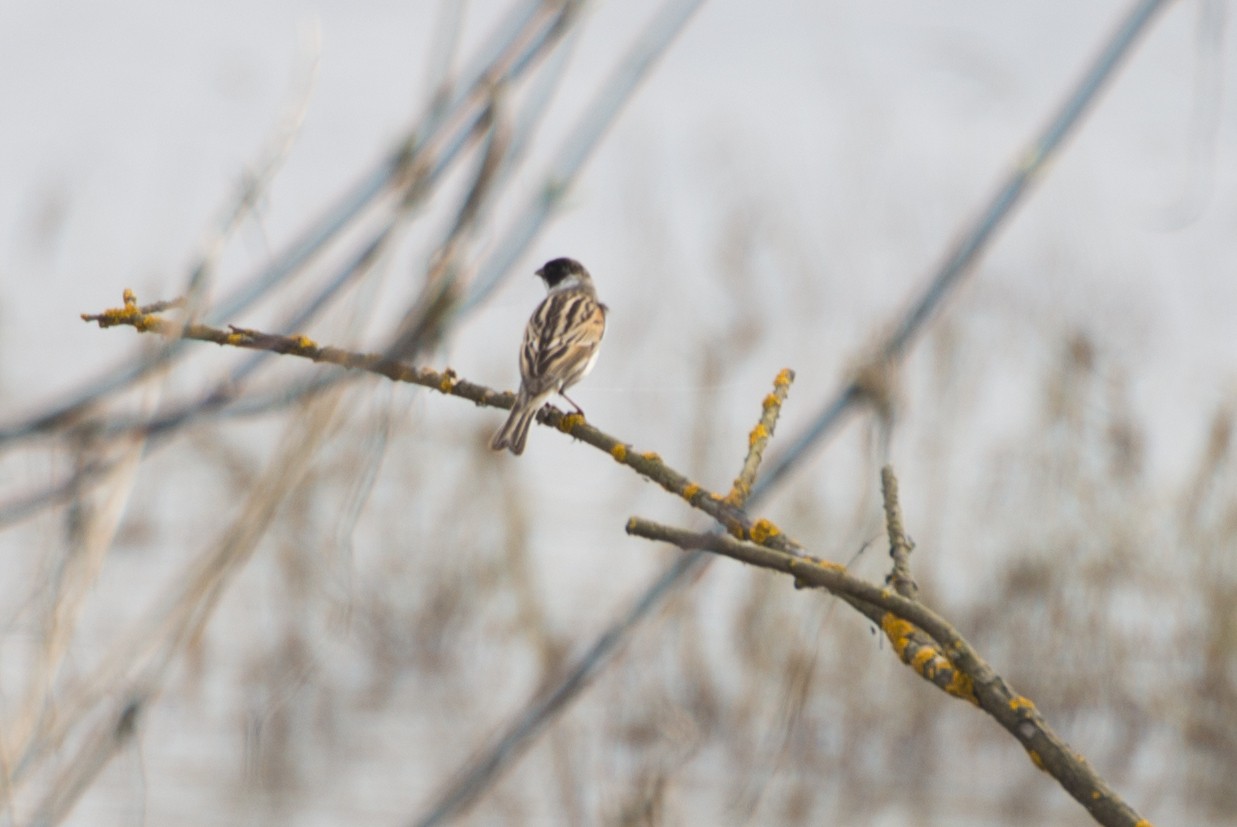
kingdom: Animalia
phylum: Chordata
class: Aves
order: Passeriformes
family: Emberizidae
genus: Emberiza
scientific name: Emberiza schoeniclus
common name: Reed bunting
